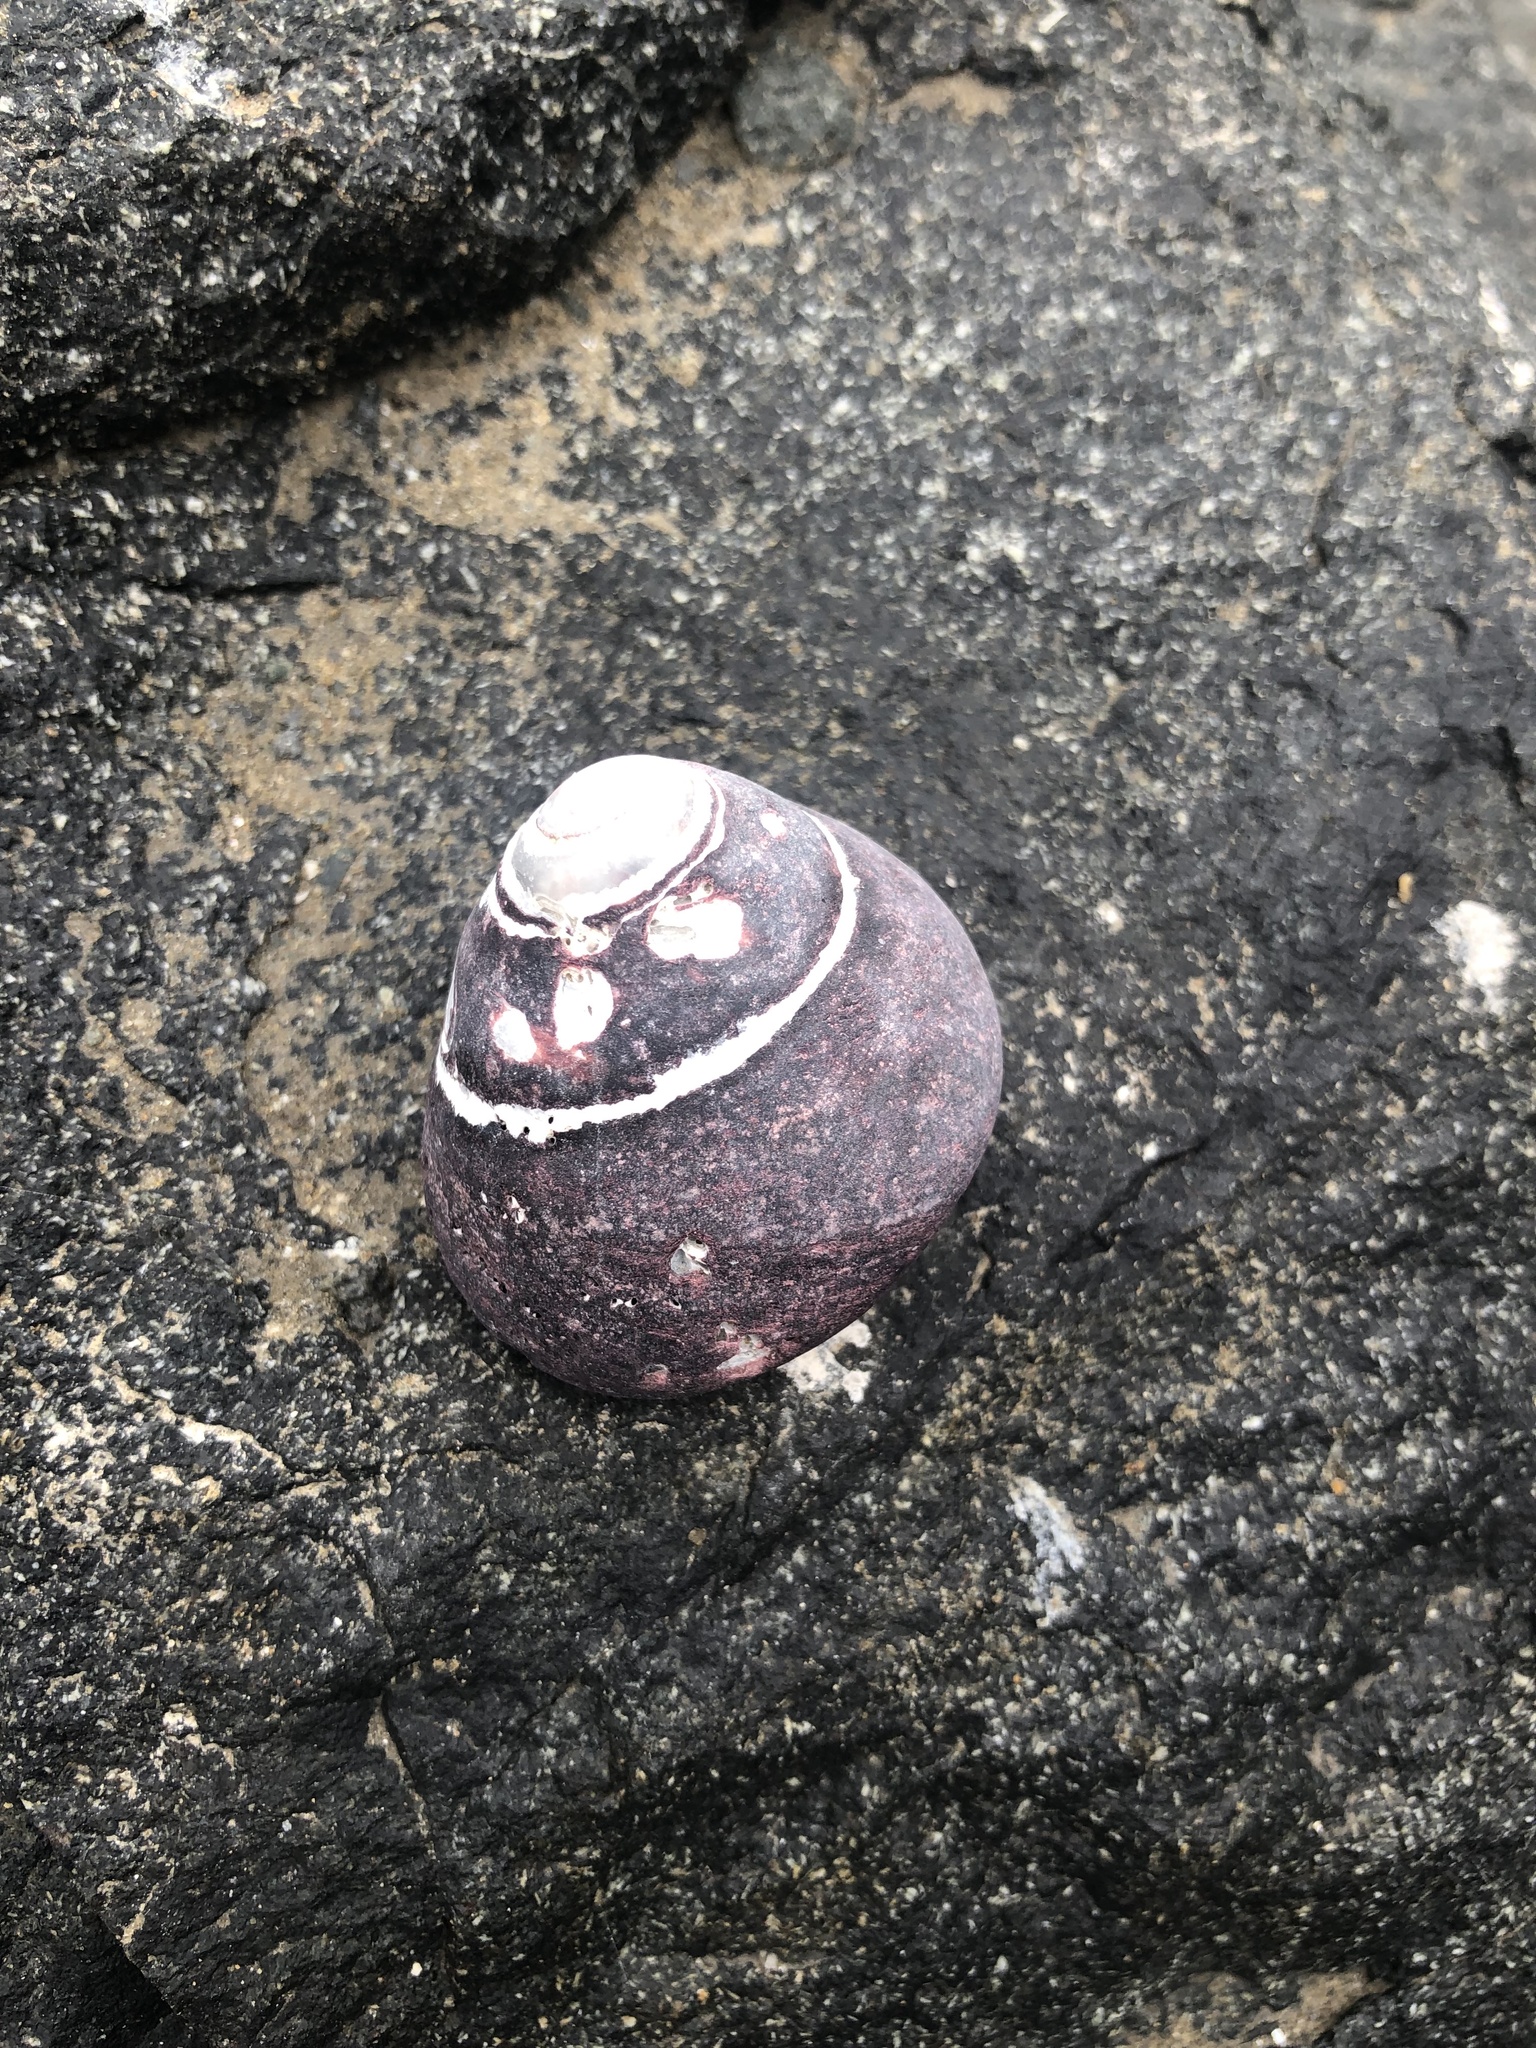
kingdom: Animalia
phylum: Mollusca
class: Gastropoda
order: Trochida
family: Tegulidae
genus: Tegula
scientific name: Tegula atra
